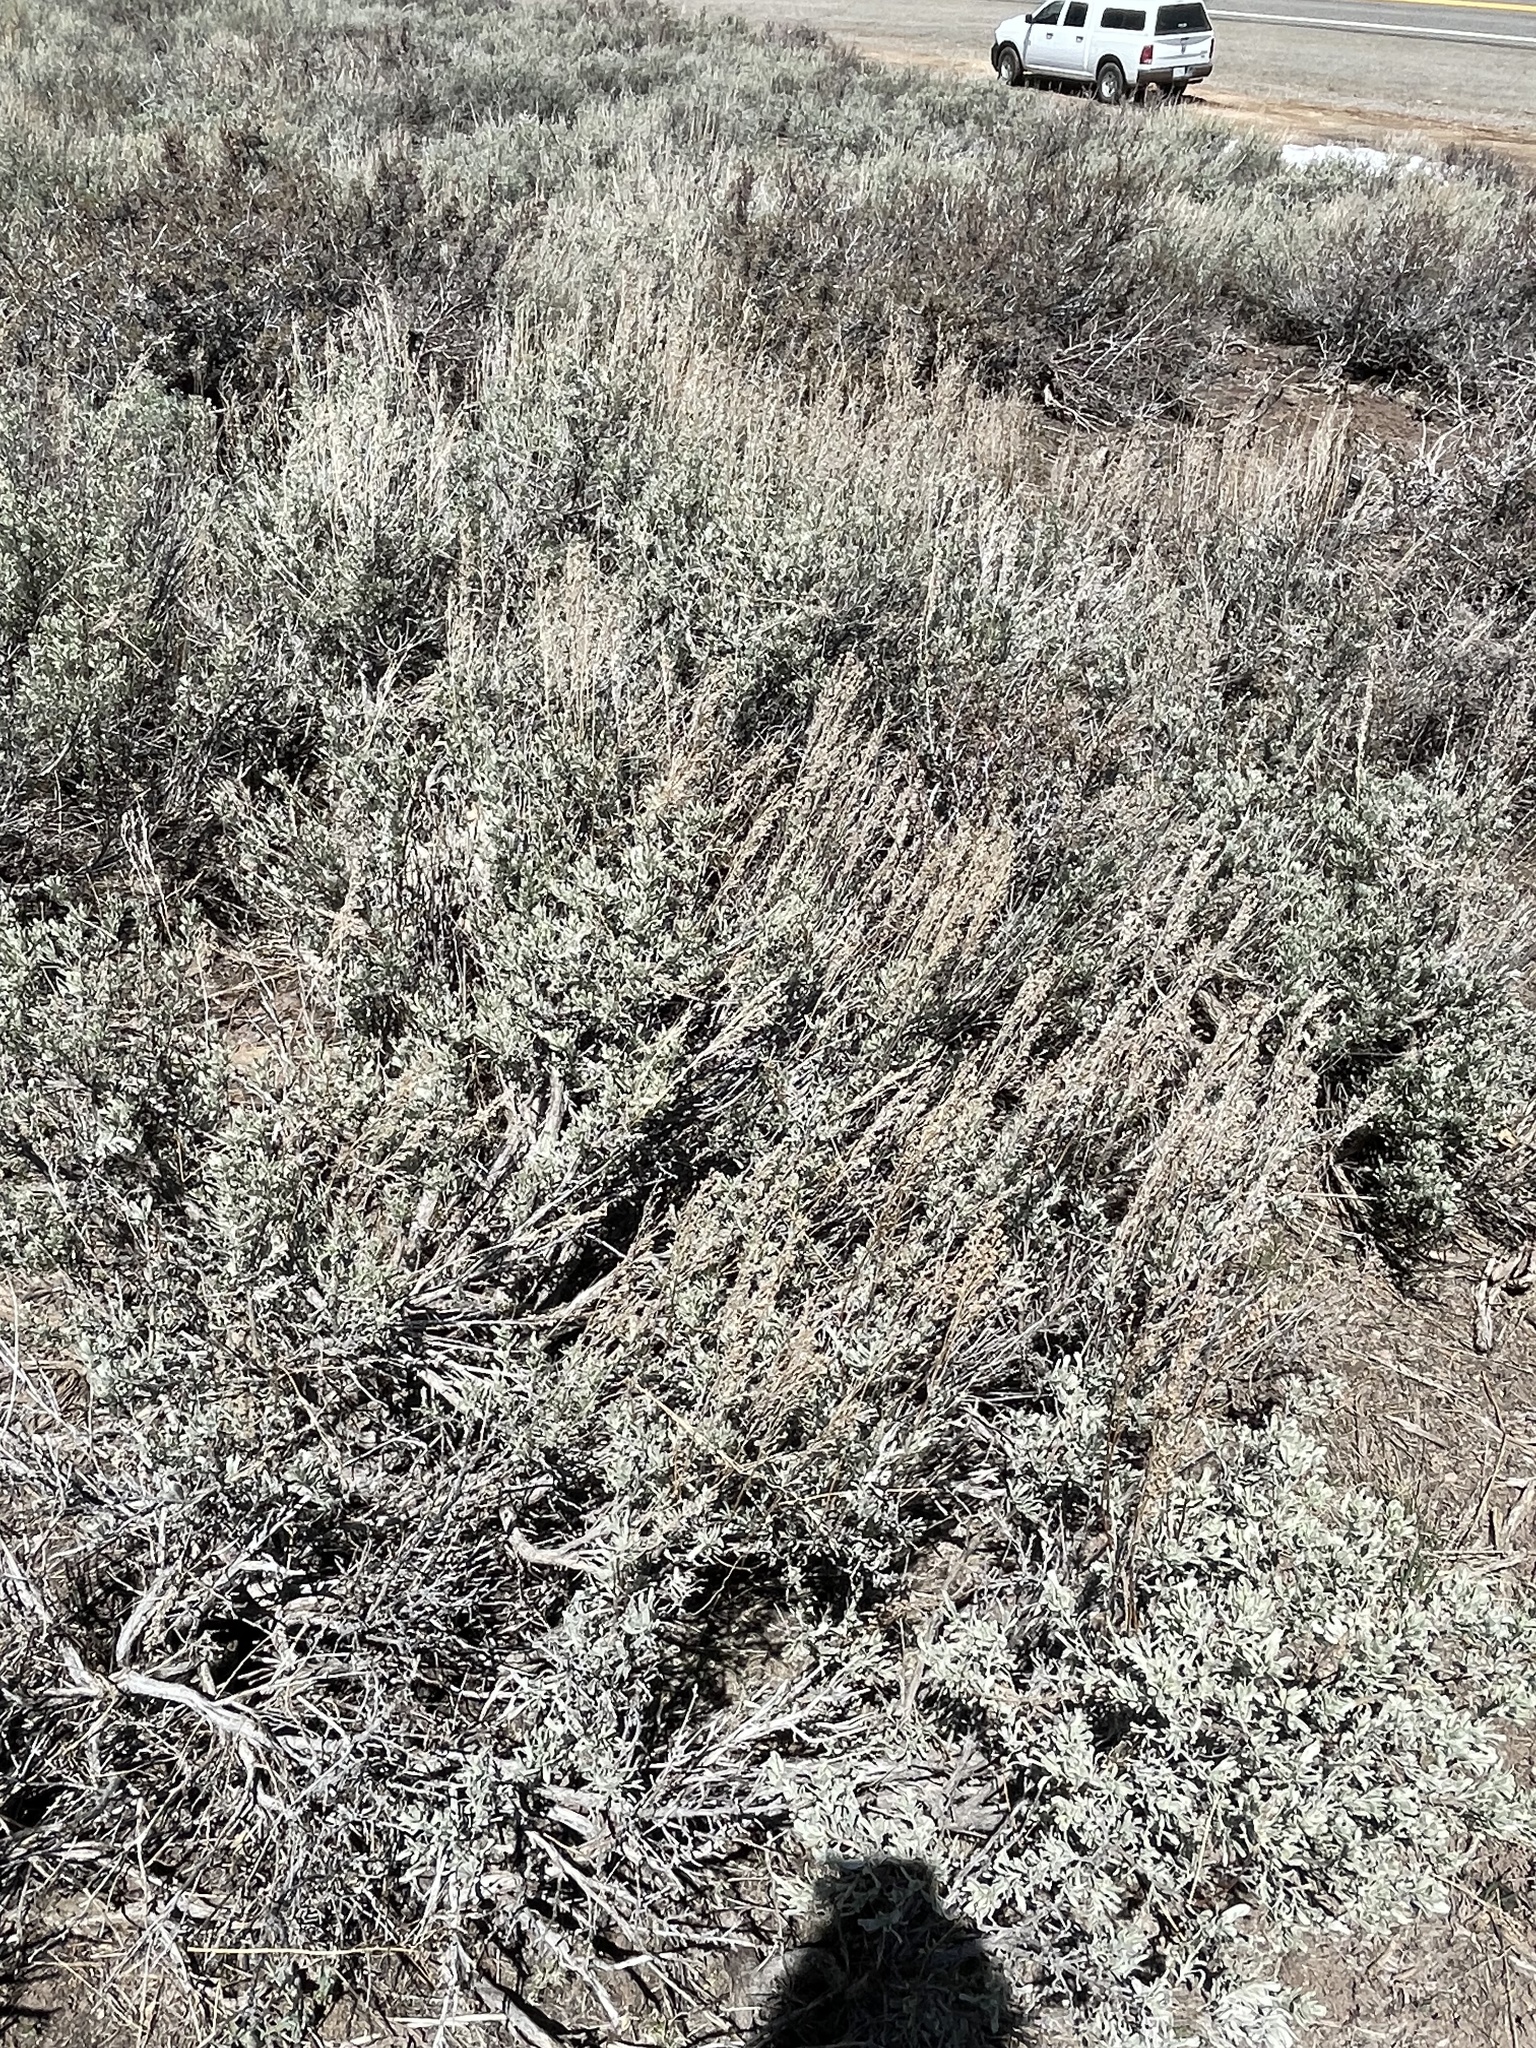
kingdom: Plantae
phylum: Tracheophyta
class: Magnoliopsida
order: Asterales
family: Asteraceae
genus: Artemisia
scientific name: Artemisia tridentata
